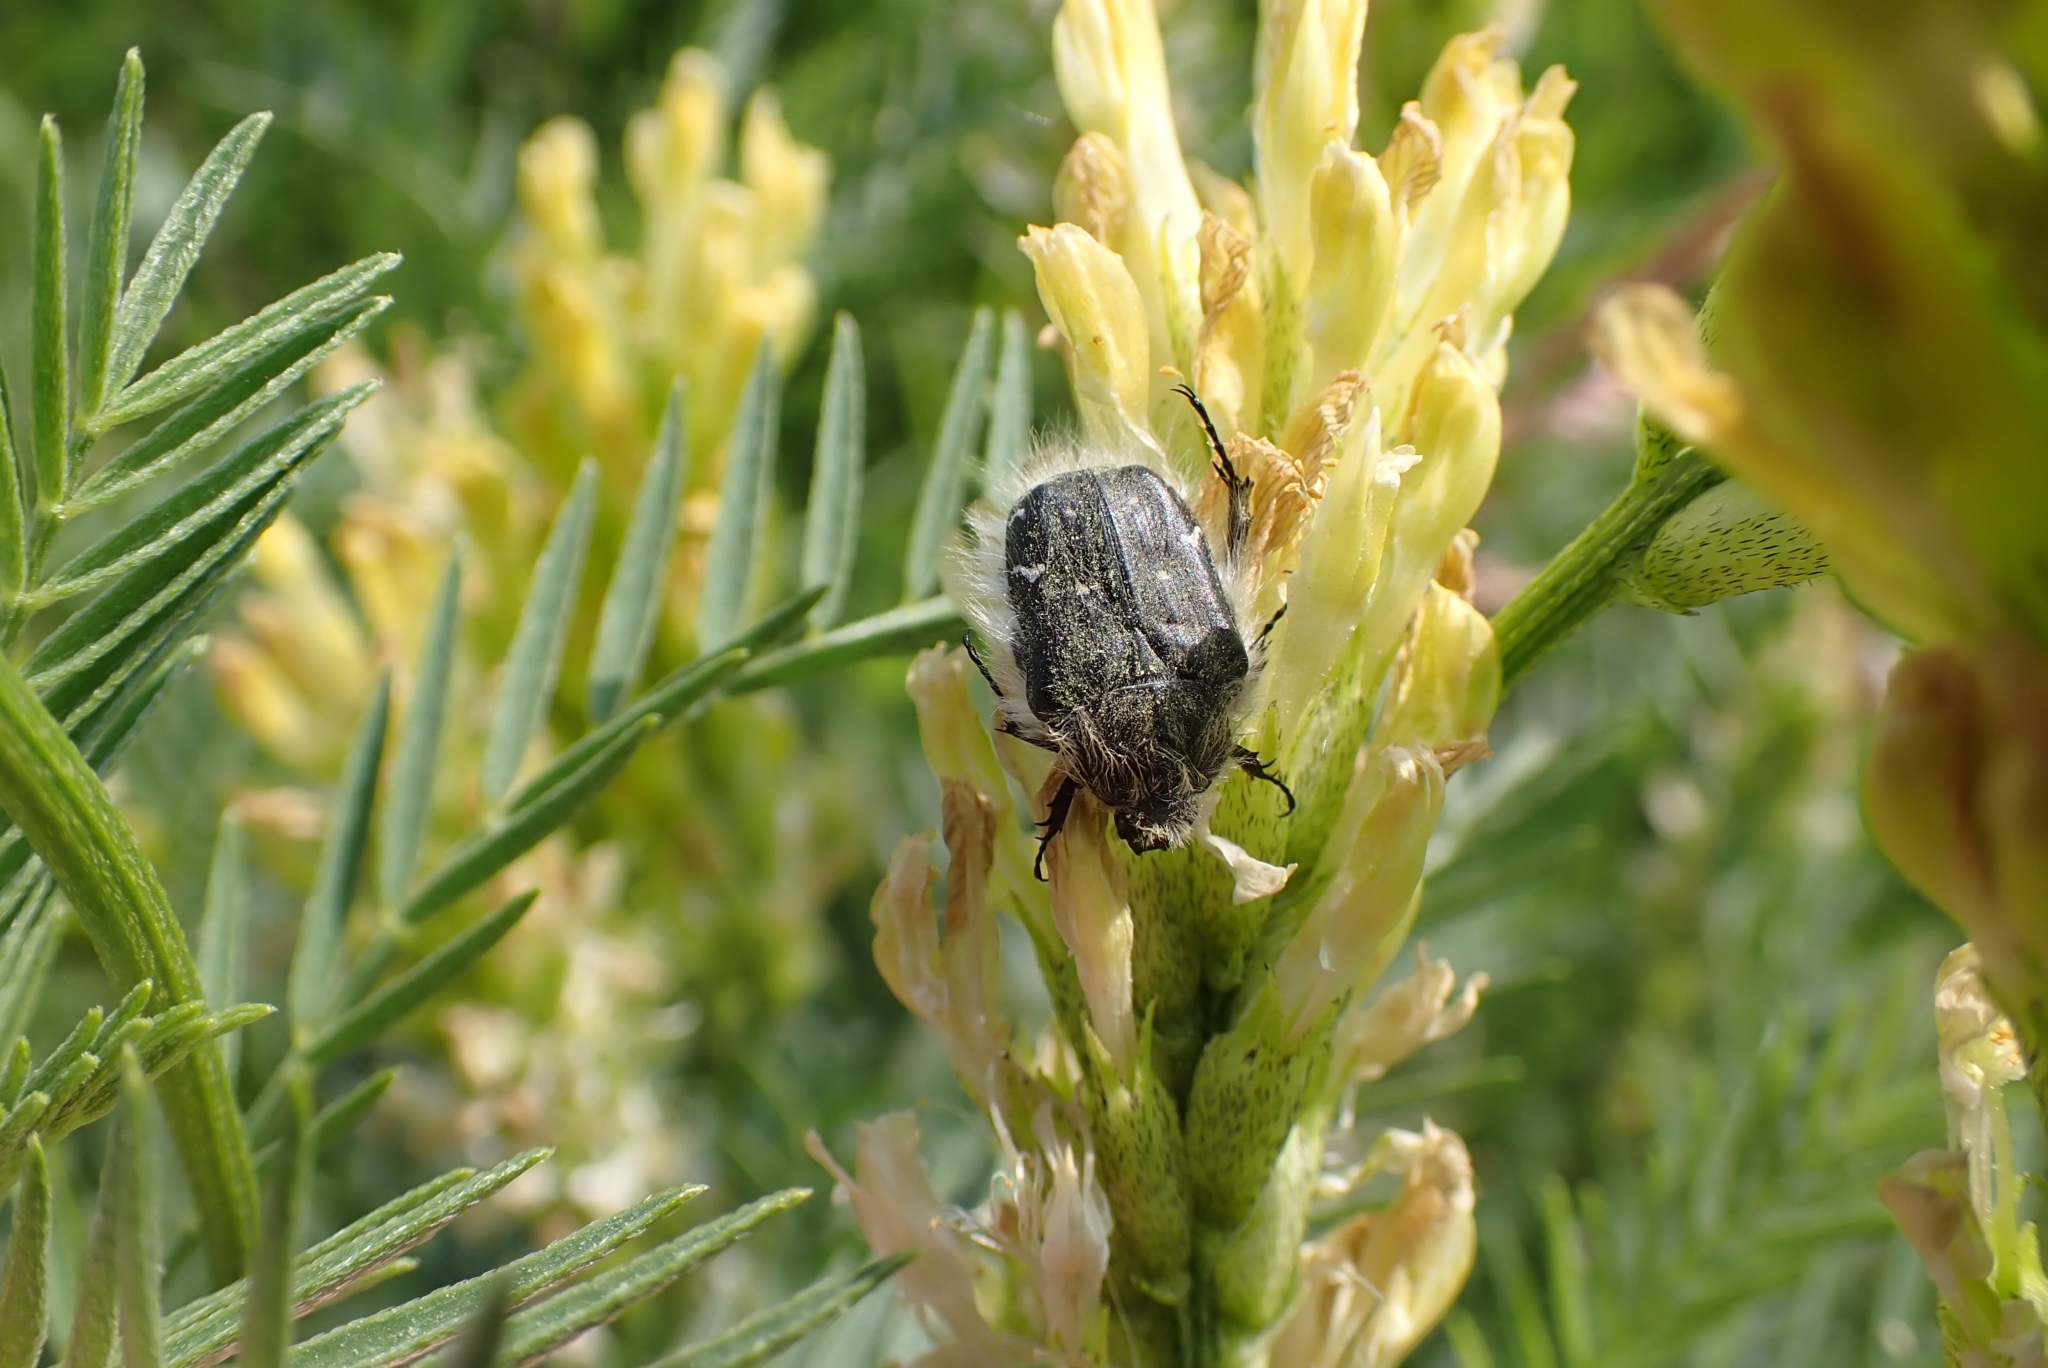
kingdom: Animalia
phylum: Arthropoda
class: Insecta
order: Coleoptera
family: Scarabaeidae
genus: Tropinota
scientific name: Tropinota hirta
